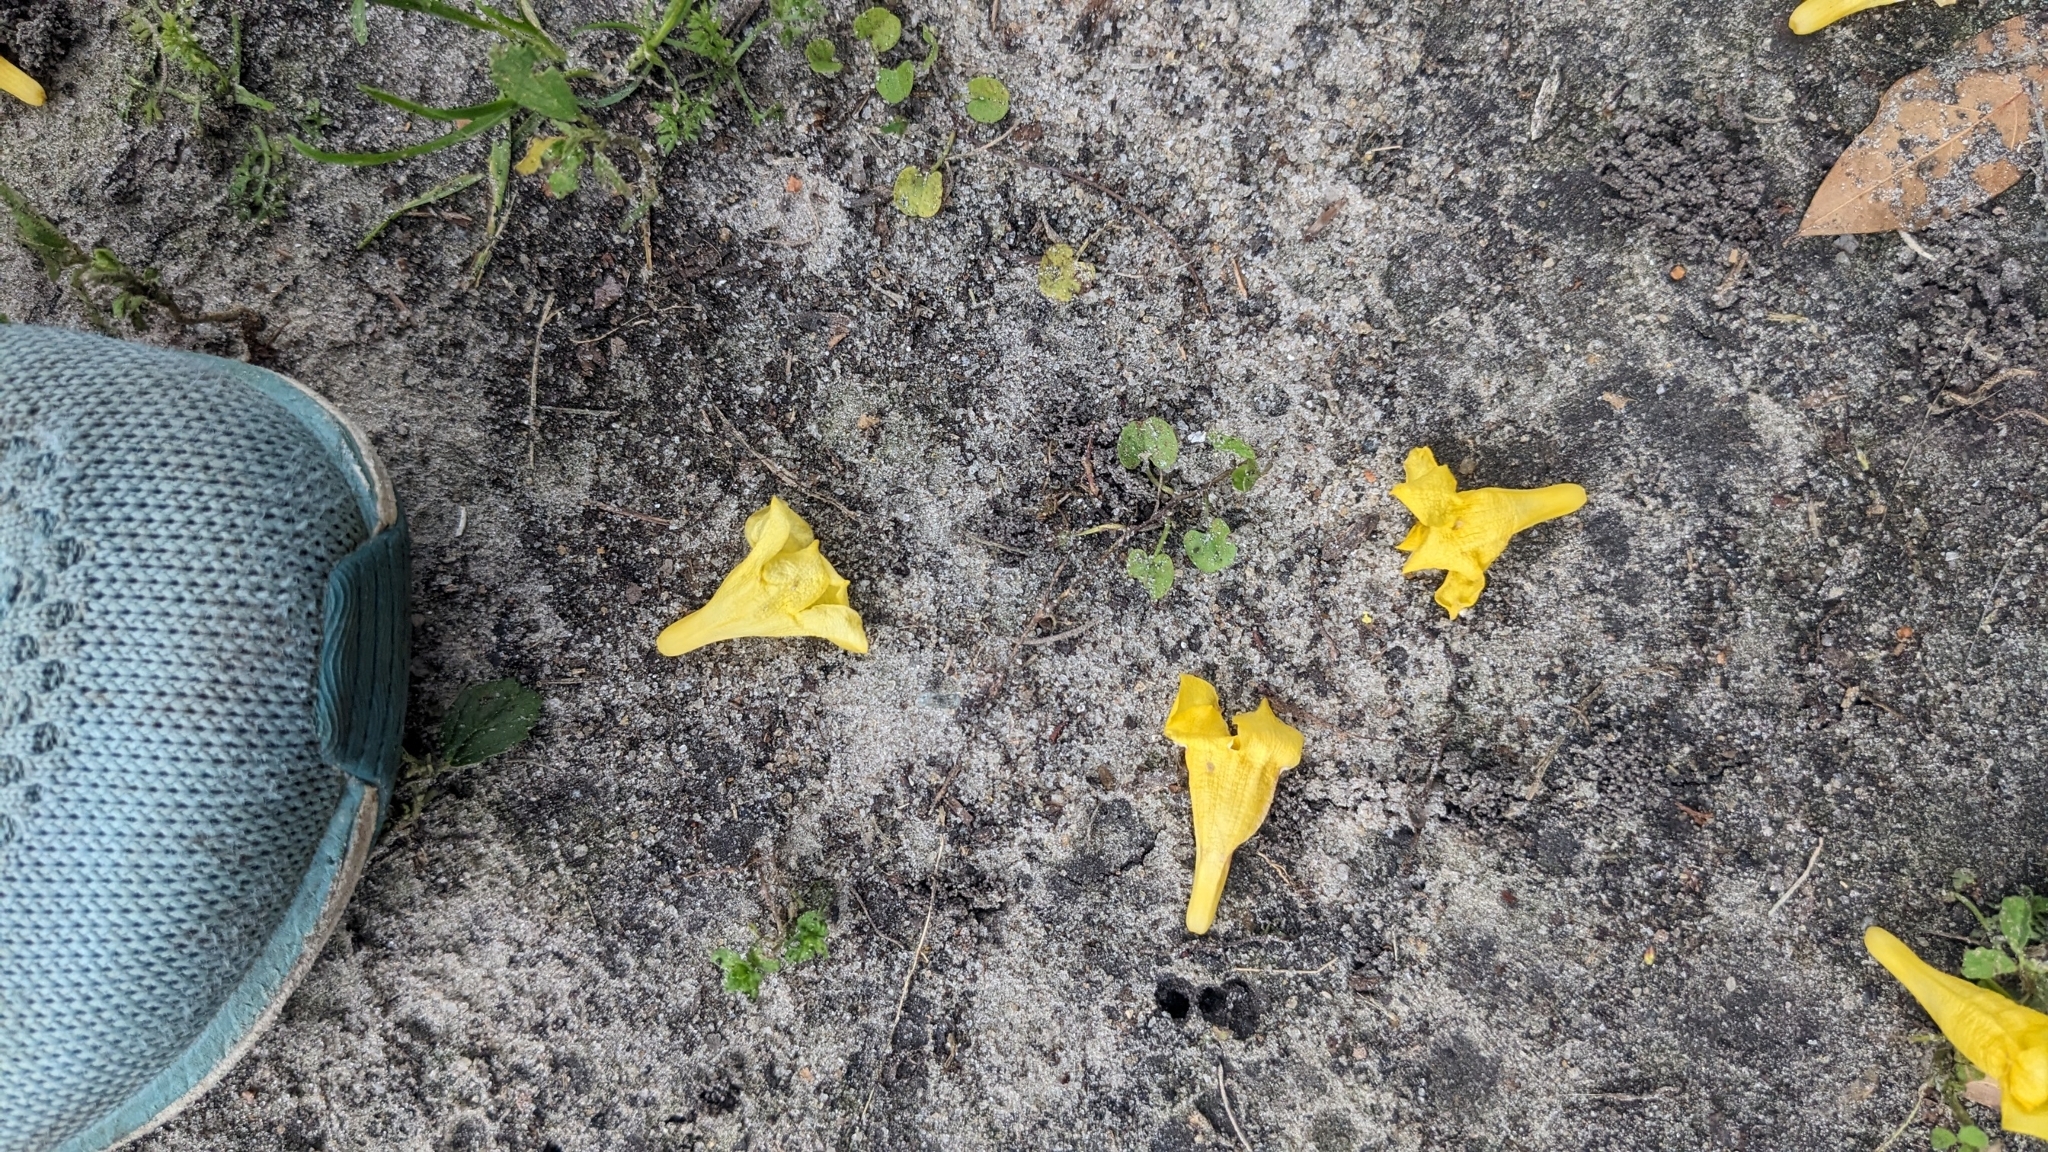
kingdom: Plantae
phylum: Tracheophyta
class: Magnoliopsida
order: Gentianales
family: Gelsemiaceae
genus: Gelsemium
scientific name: Gelsemium sempervirens
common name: Carolina-jasmine
